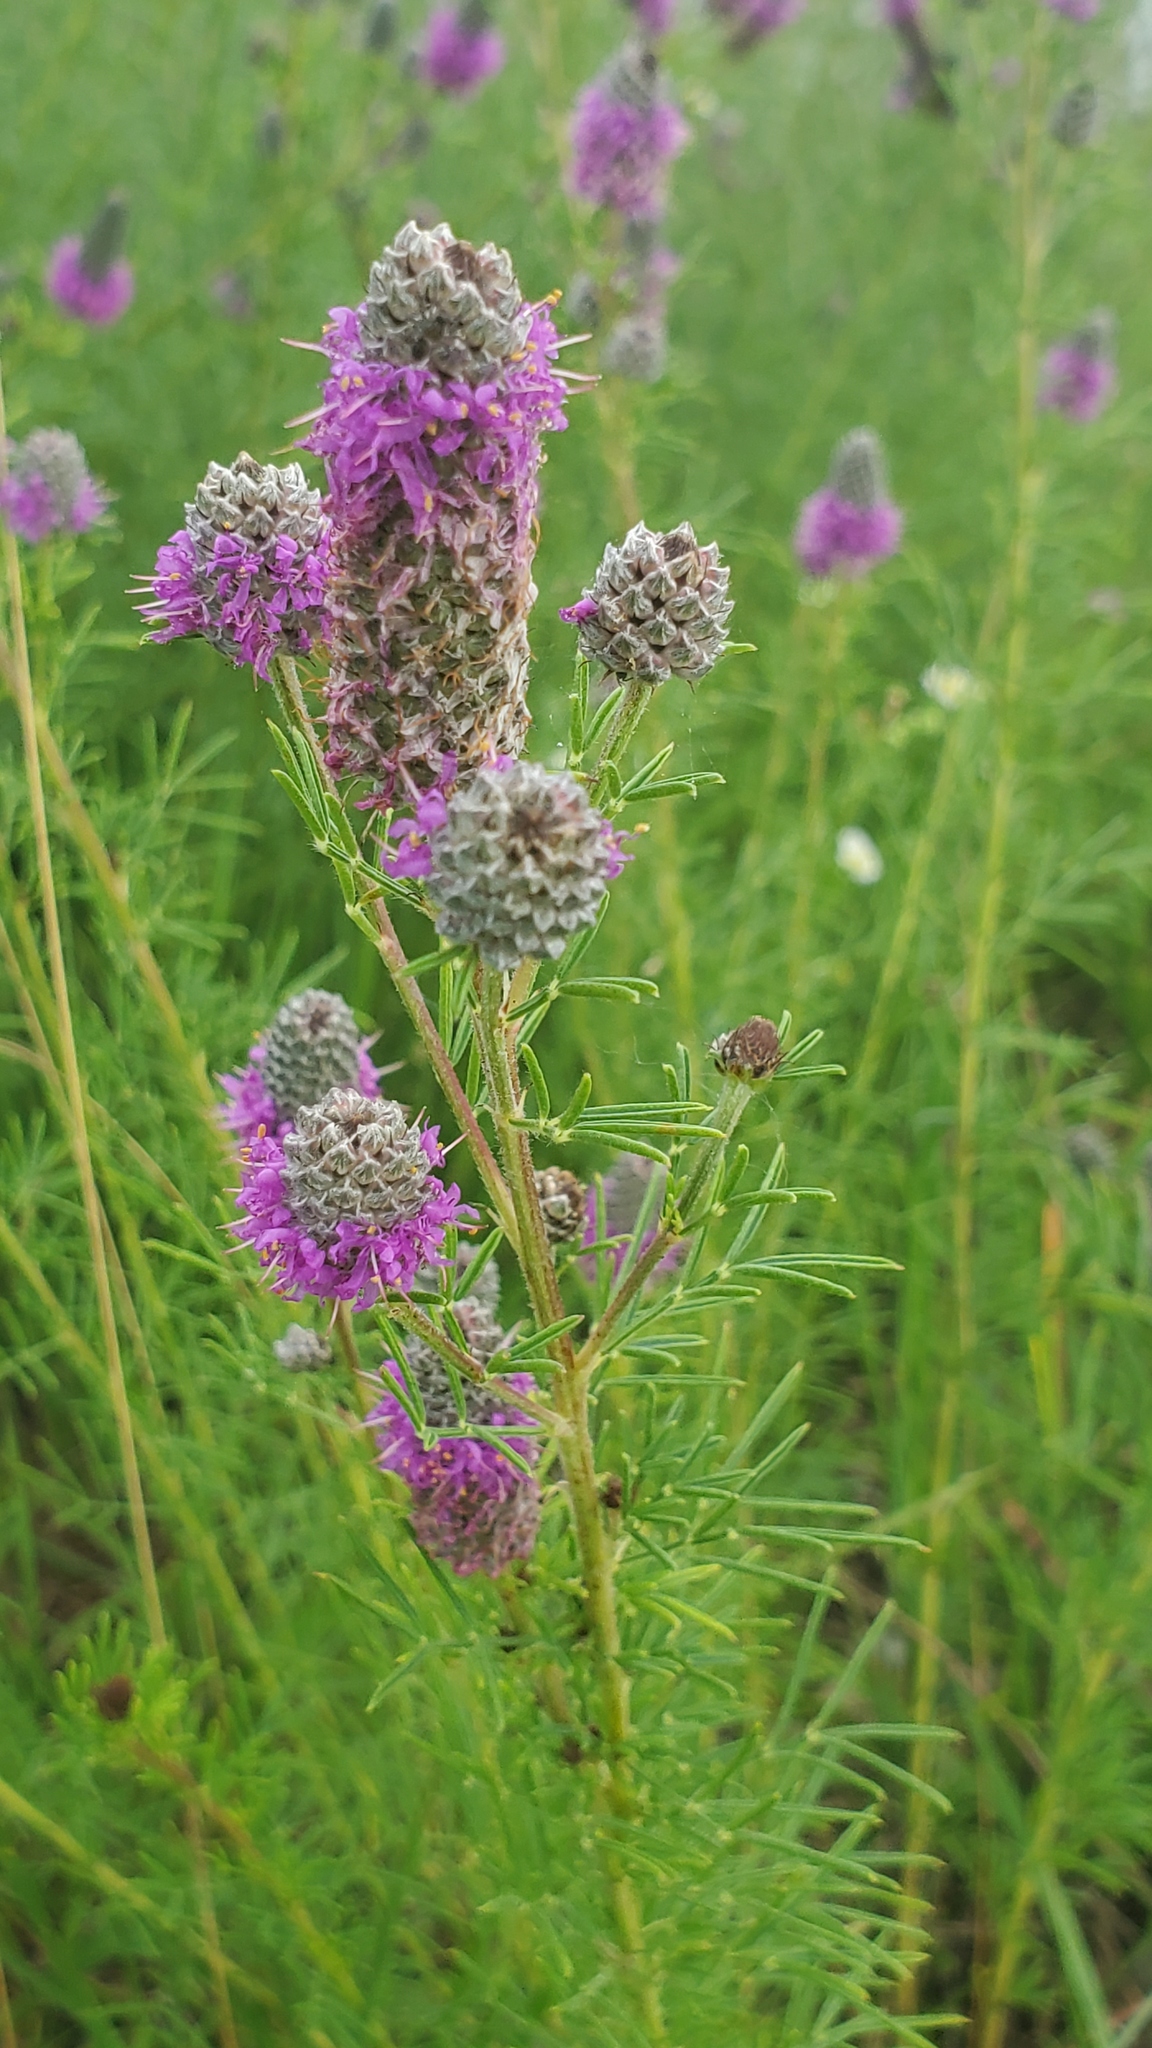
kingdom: Plantae
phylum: Tracheophyta
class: Magnoliopsida
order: Fabales
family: Fabaceae
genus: Dalea
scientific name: Dalea purpurea
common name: Purple prairie-clover
